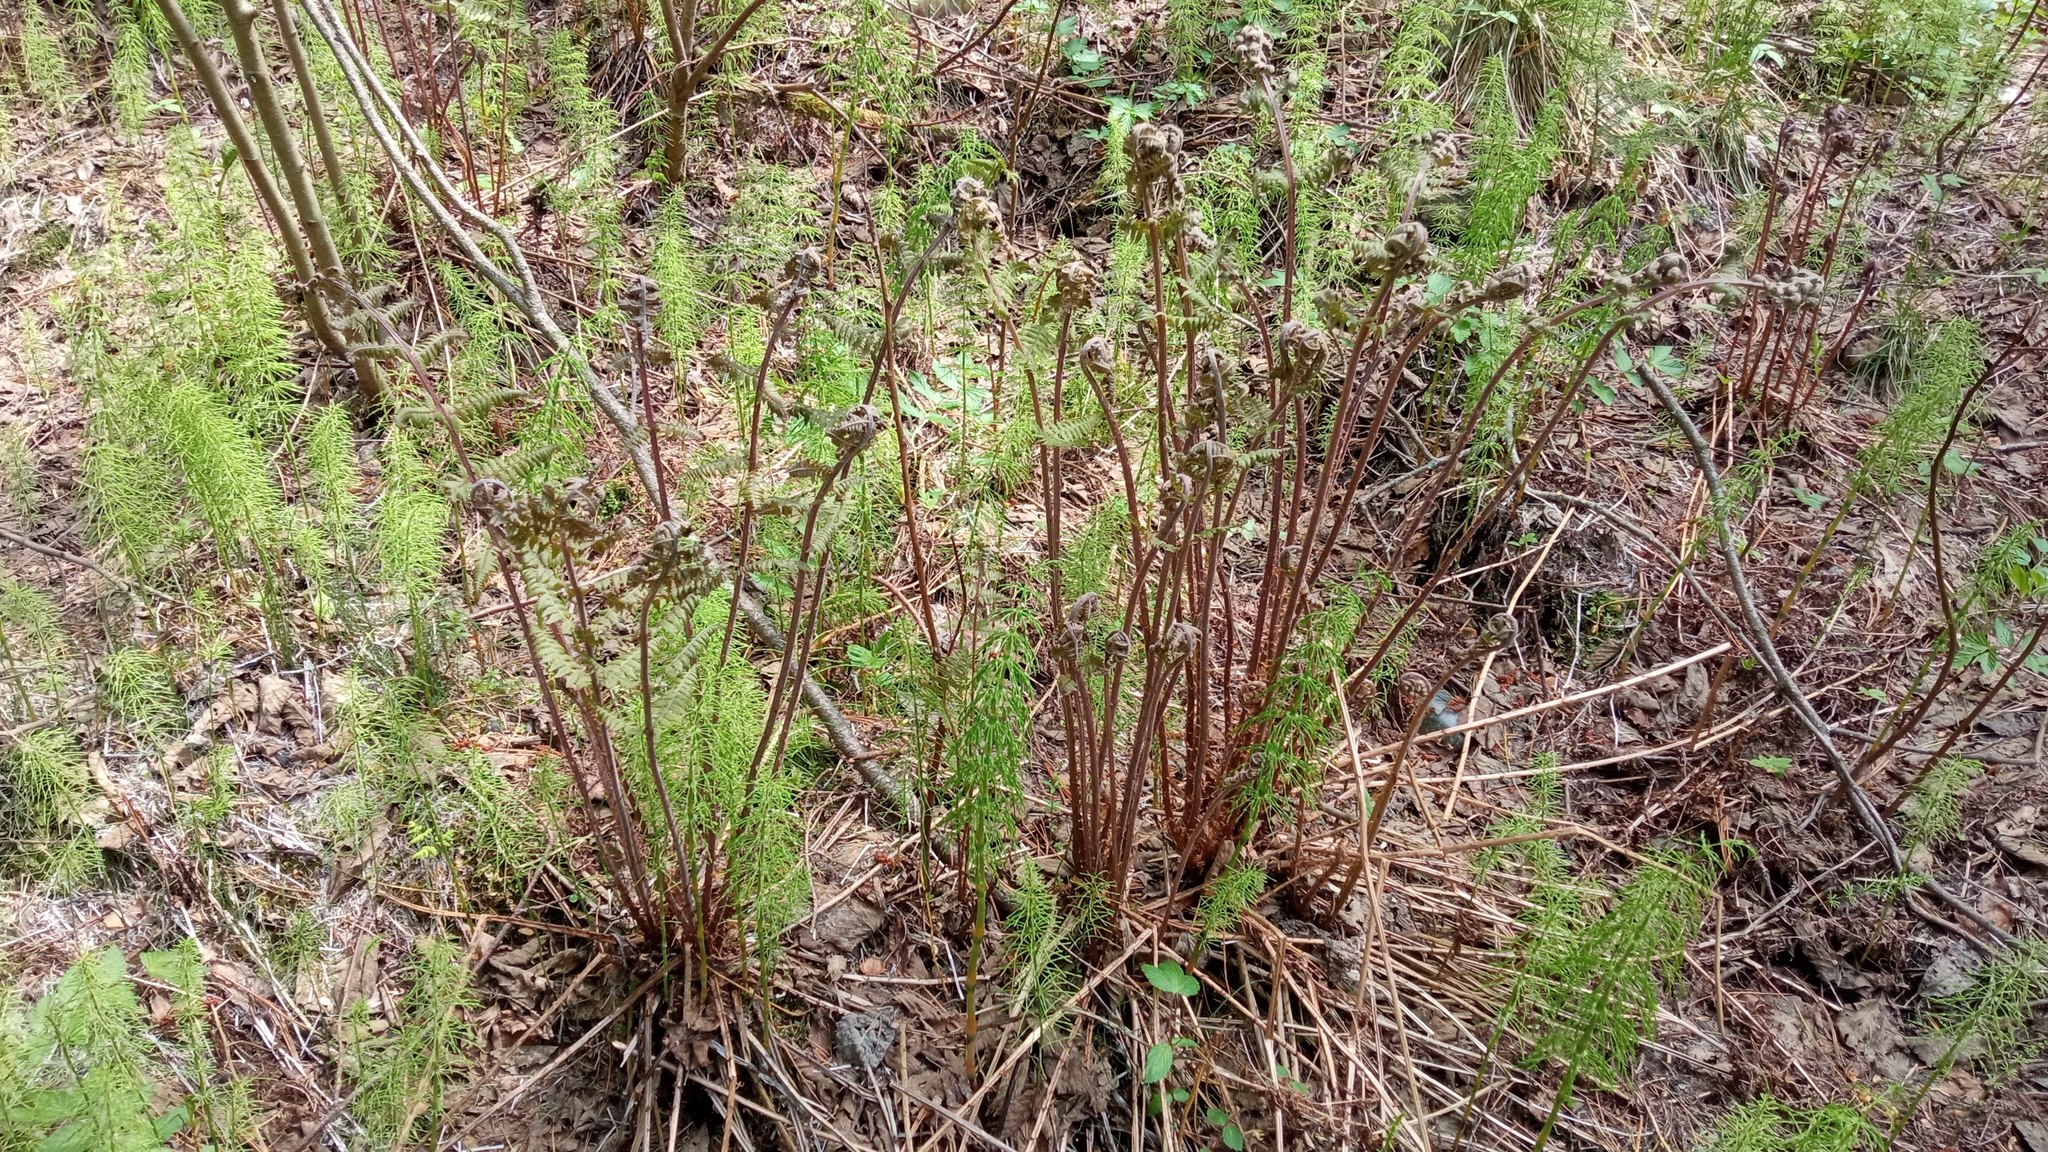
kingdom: Plantae
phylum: Tracheophyta
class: Polypodiopsida
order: Polypodiales
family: Athyriaceae
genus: Athyrium
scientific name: Athyrium filix-femina
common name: Lady fern
